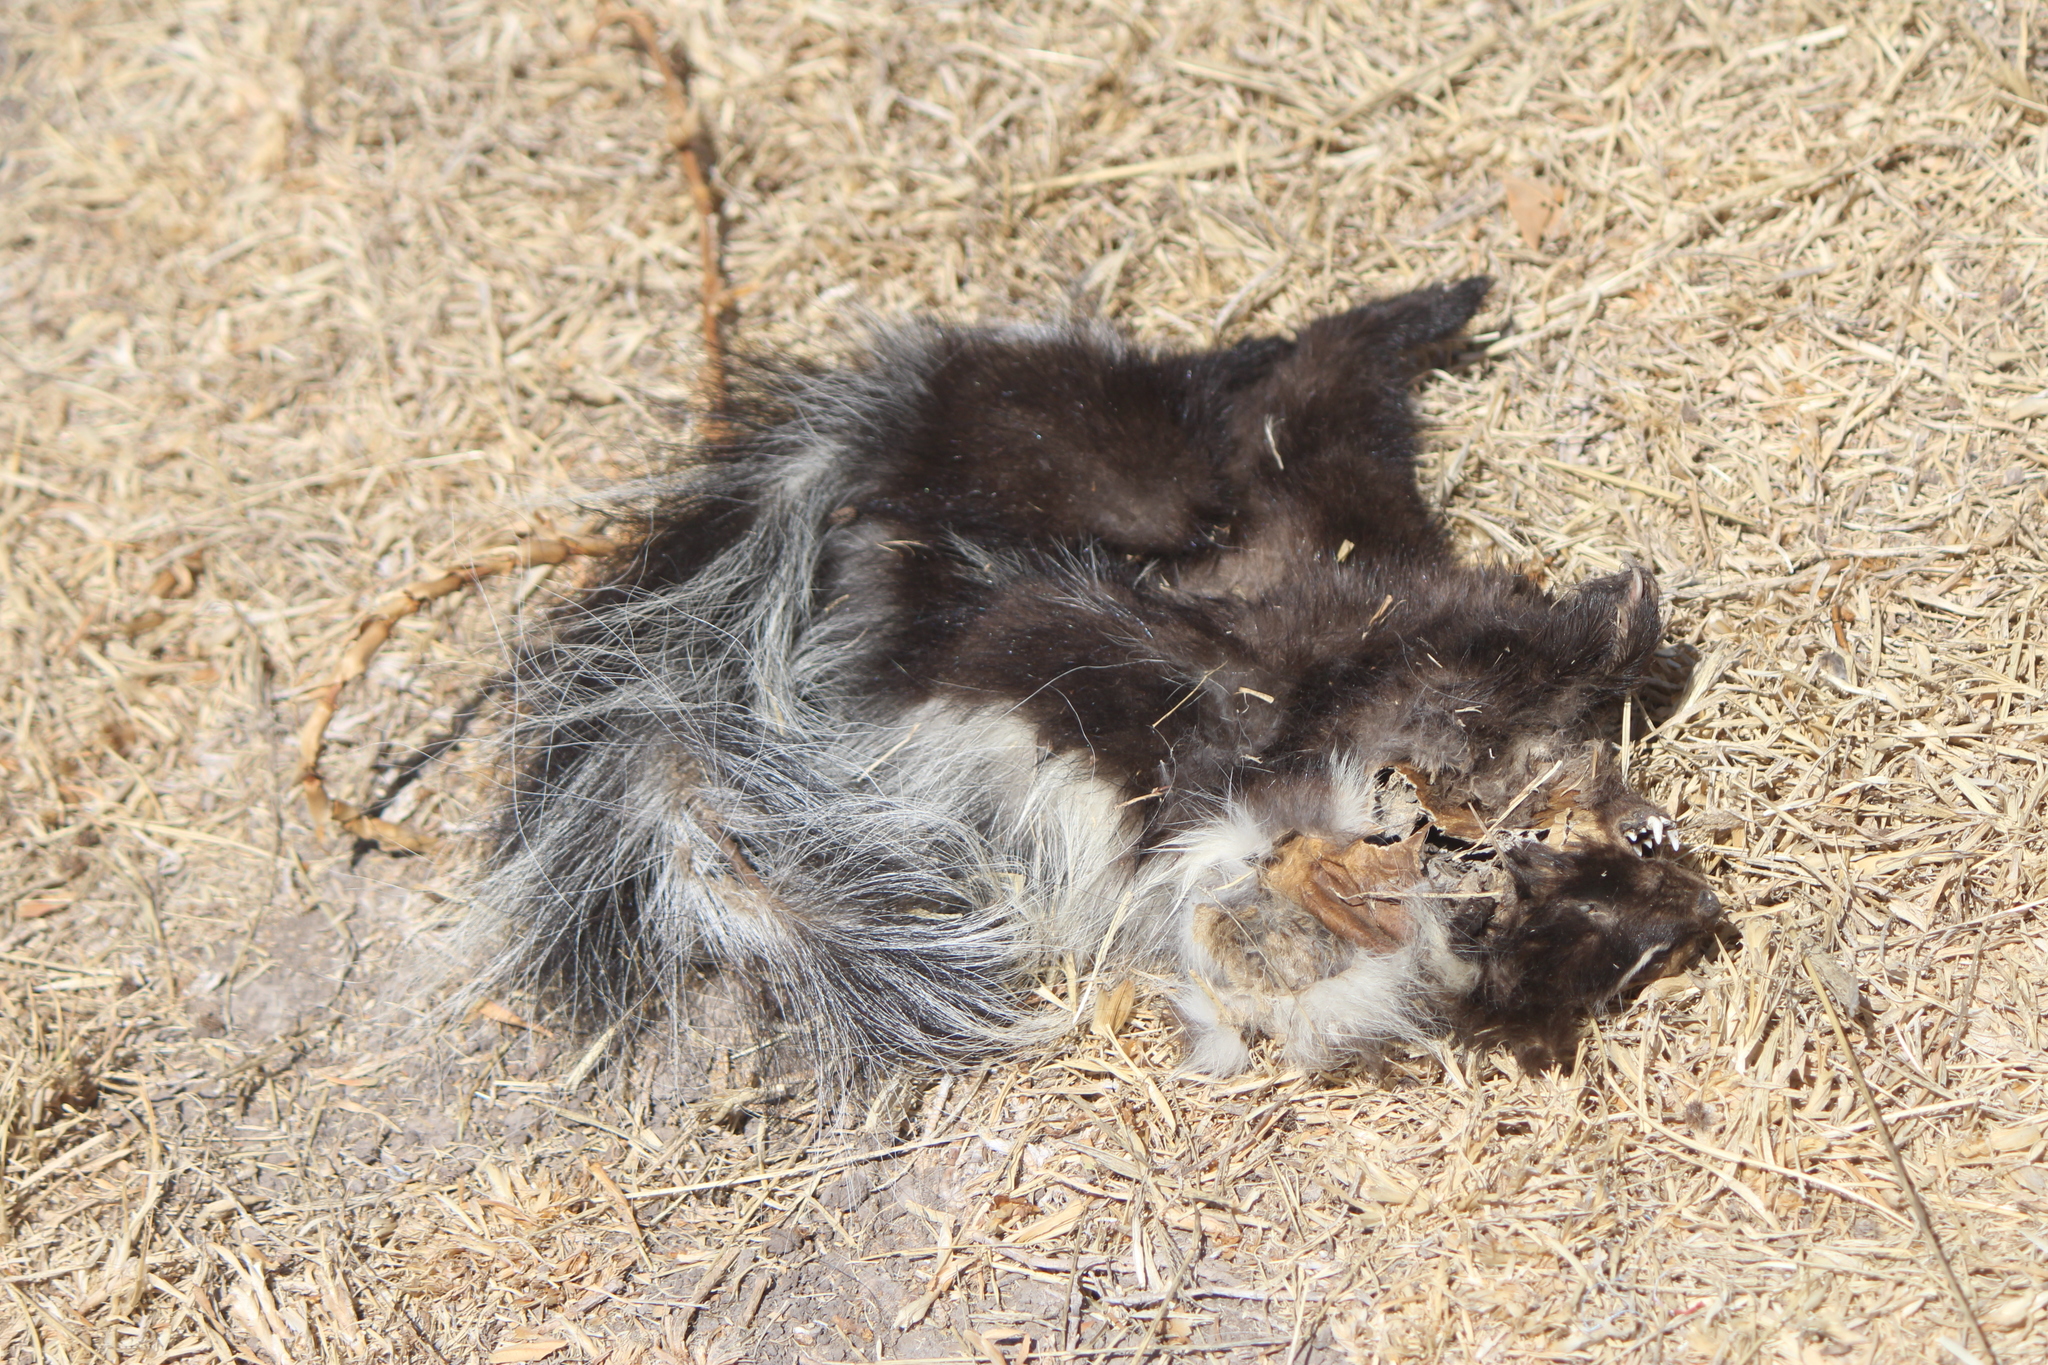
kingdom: Animalia
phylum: Chordata
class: Mammalia
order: Carnivora
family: Mephitidae
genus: Mephitis
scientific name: Mephitis macroura
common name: Hooded skunk
